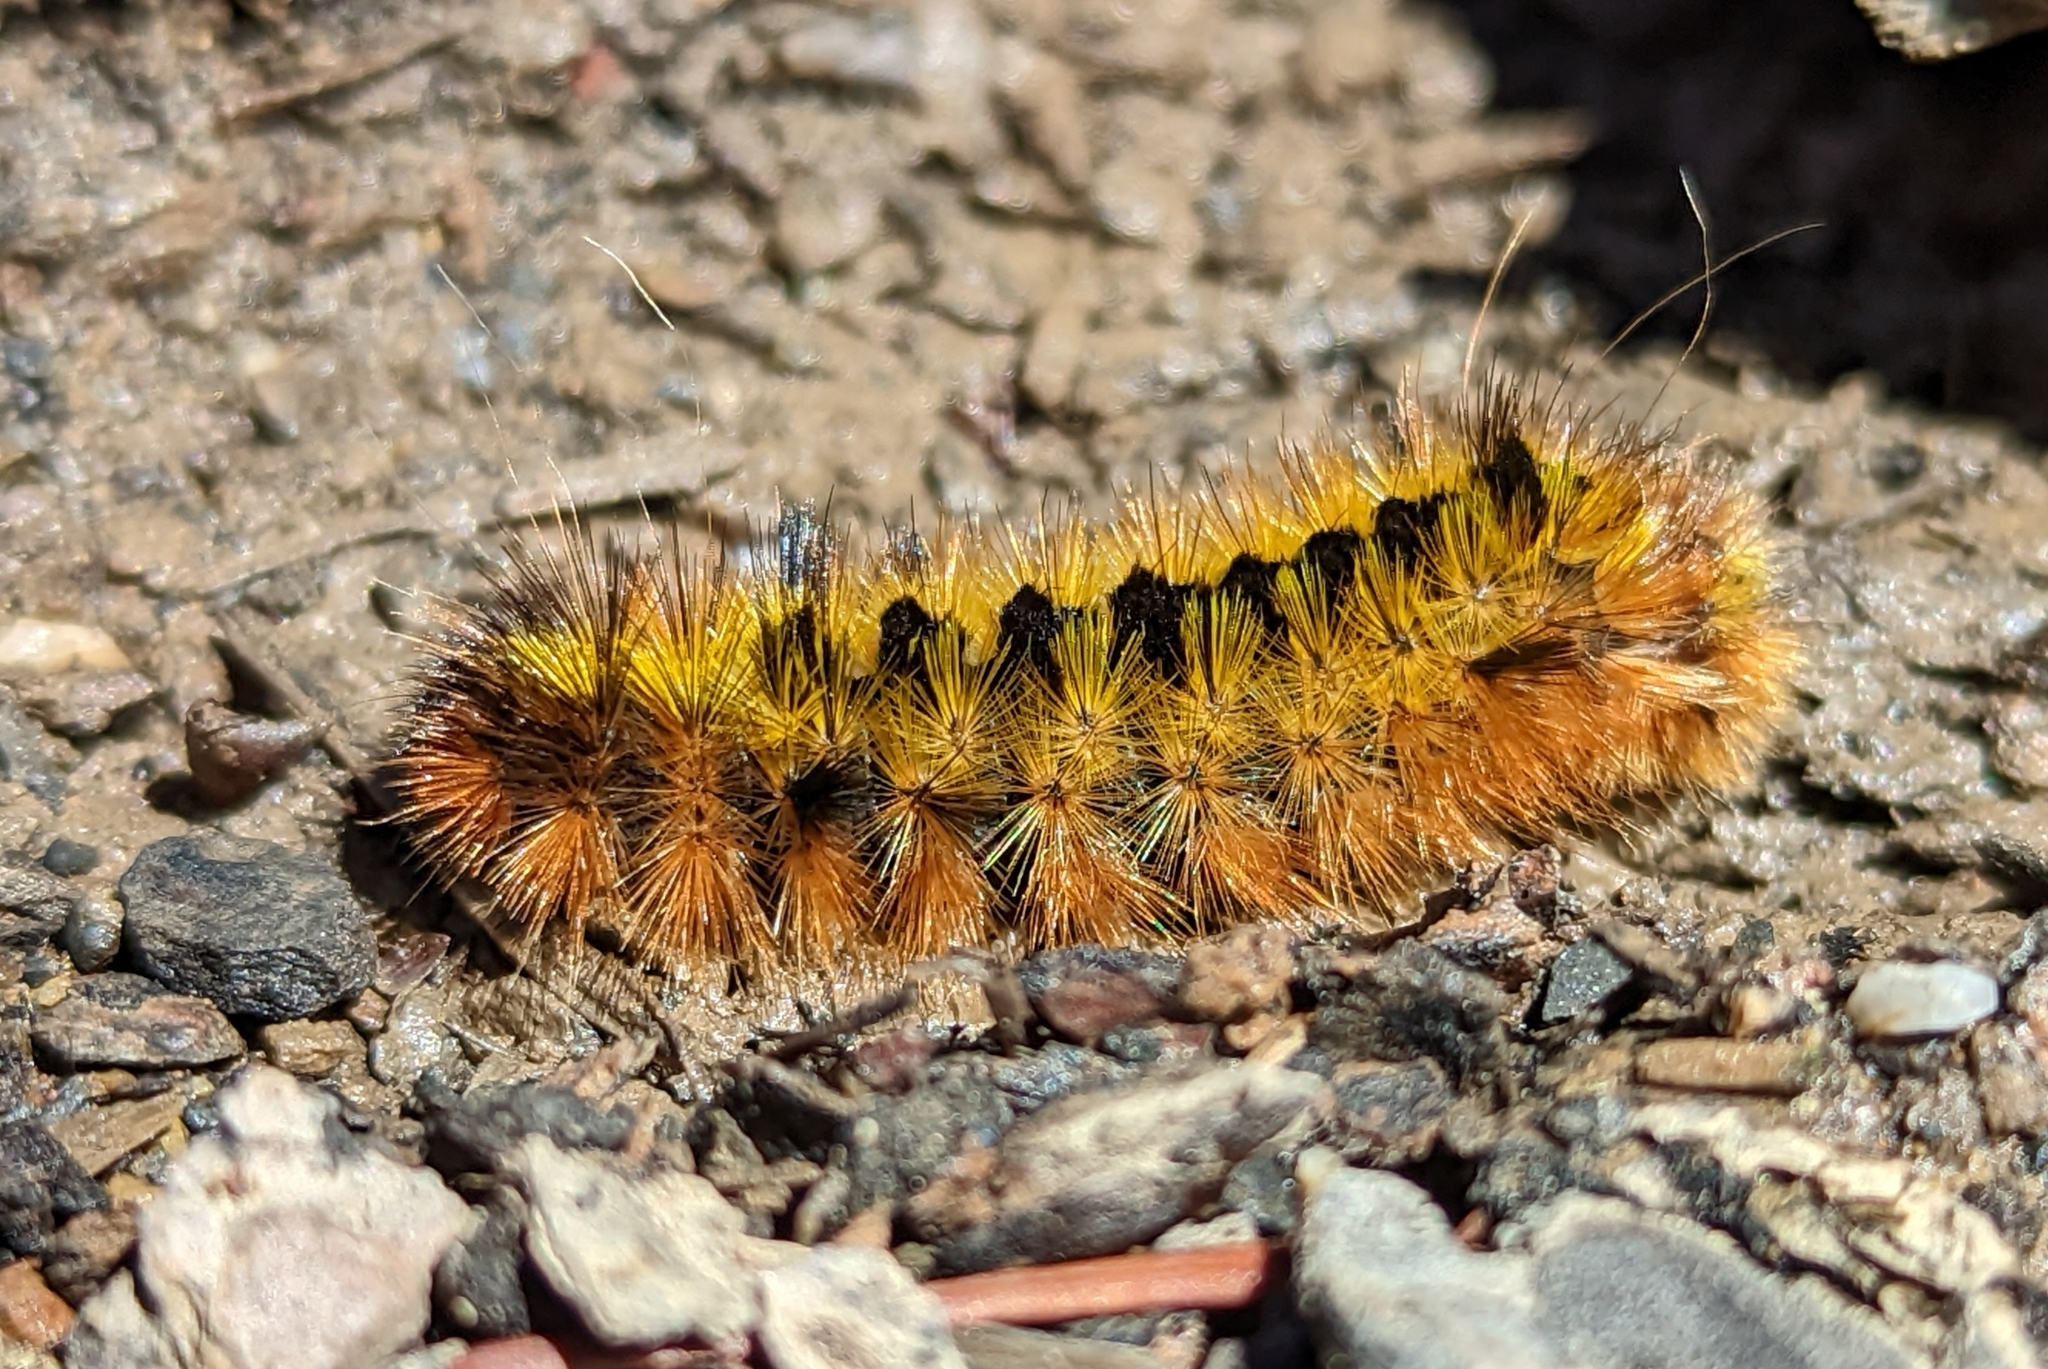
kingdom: Animalia
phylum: Arthropoda
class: Insecta
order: Lepidoptera
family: Erebidae
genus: Lophocampa
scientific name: Lophocampa argentata
